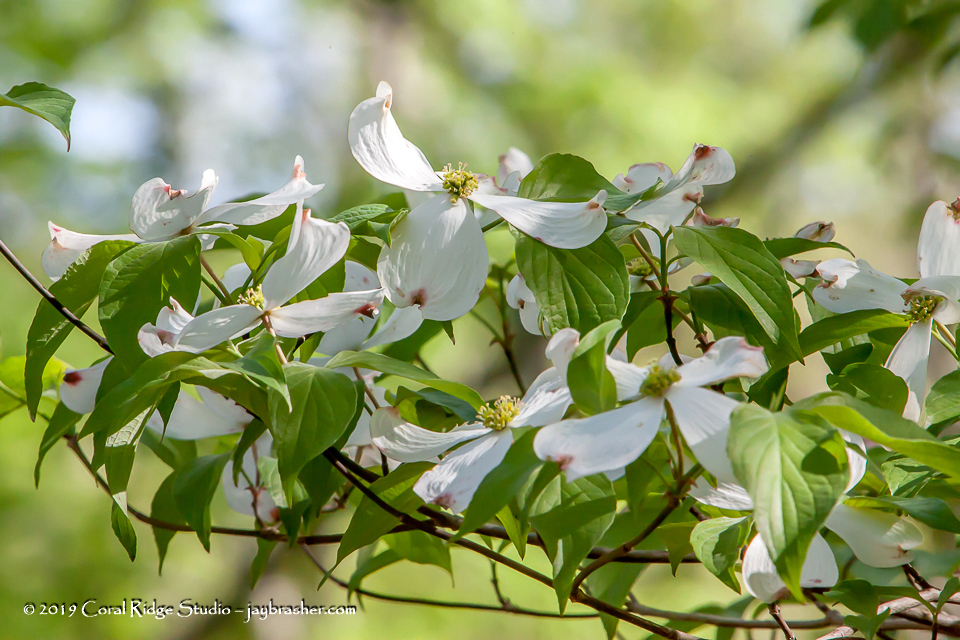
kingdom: Plantae
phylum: Tracheophyta
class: Magnoliopsida
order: Cornales
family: Cornaceae
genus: Cornus
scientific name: Cornus florida
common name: Flowering dogwood
